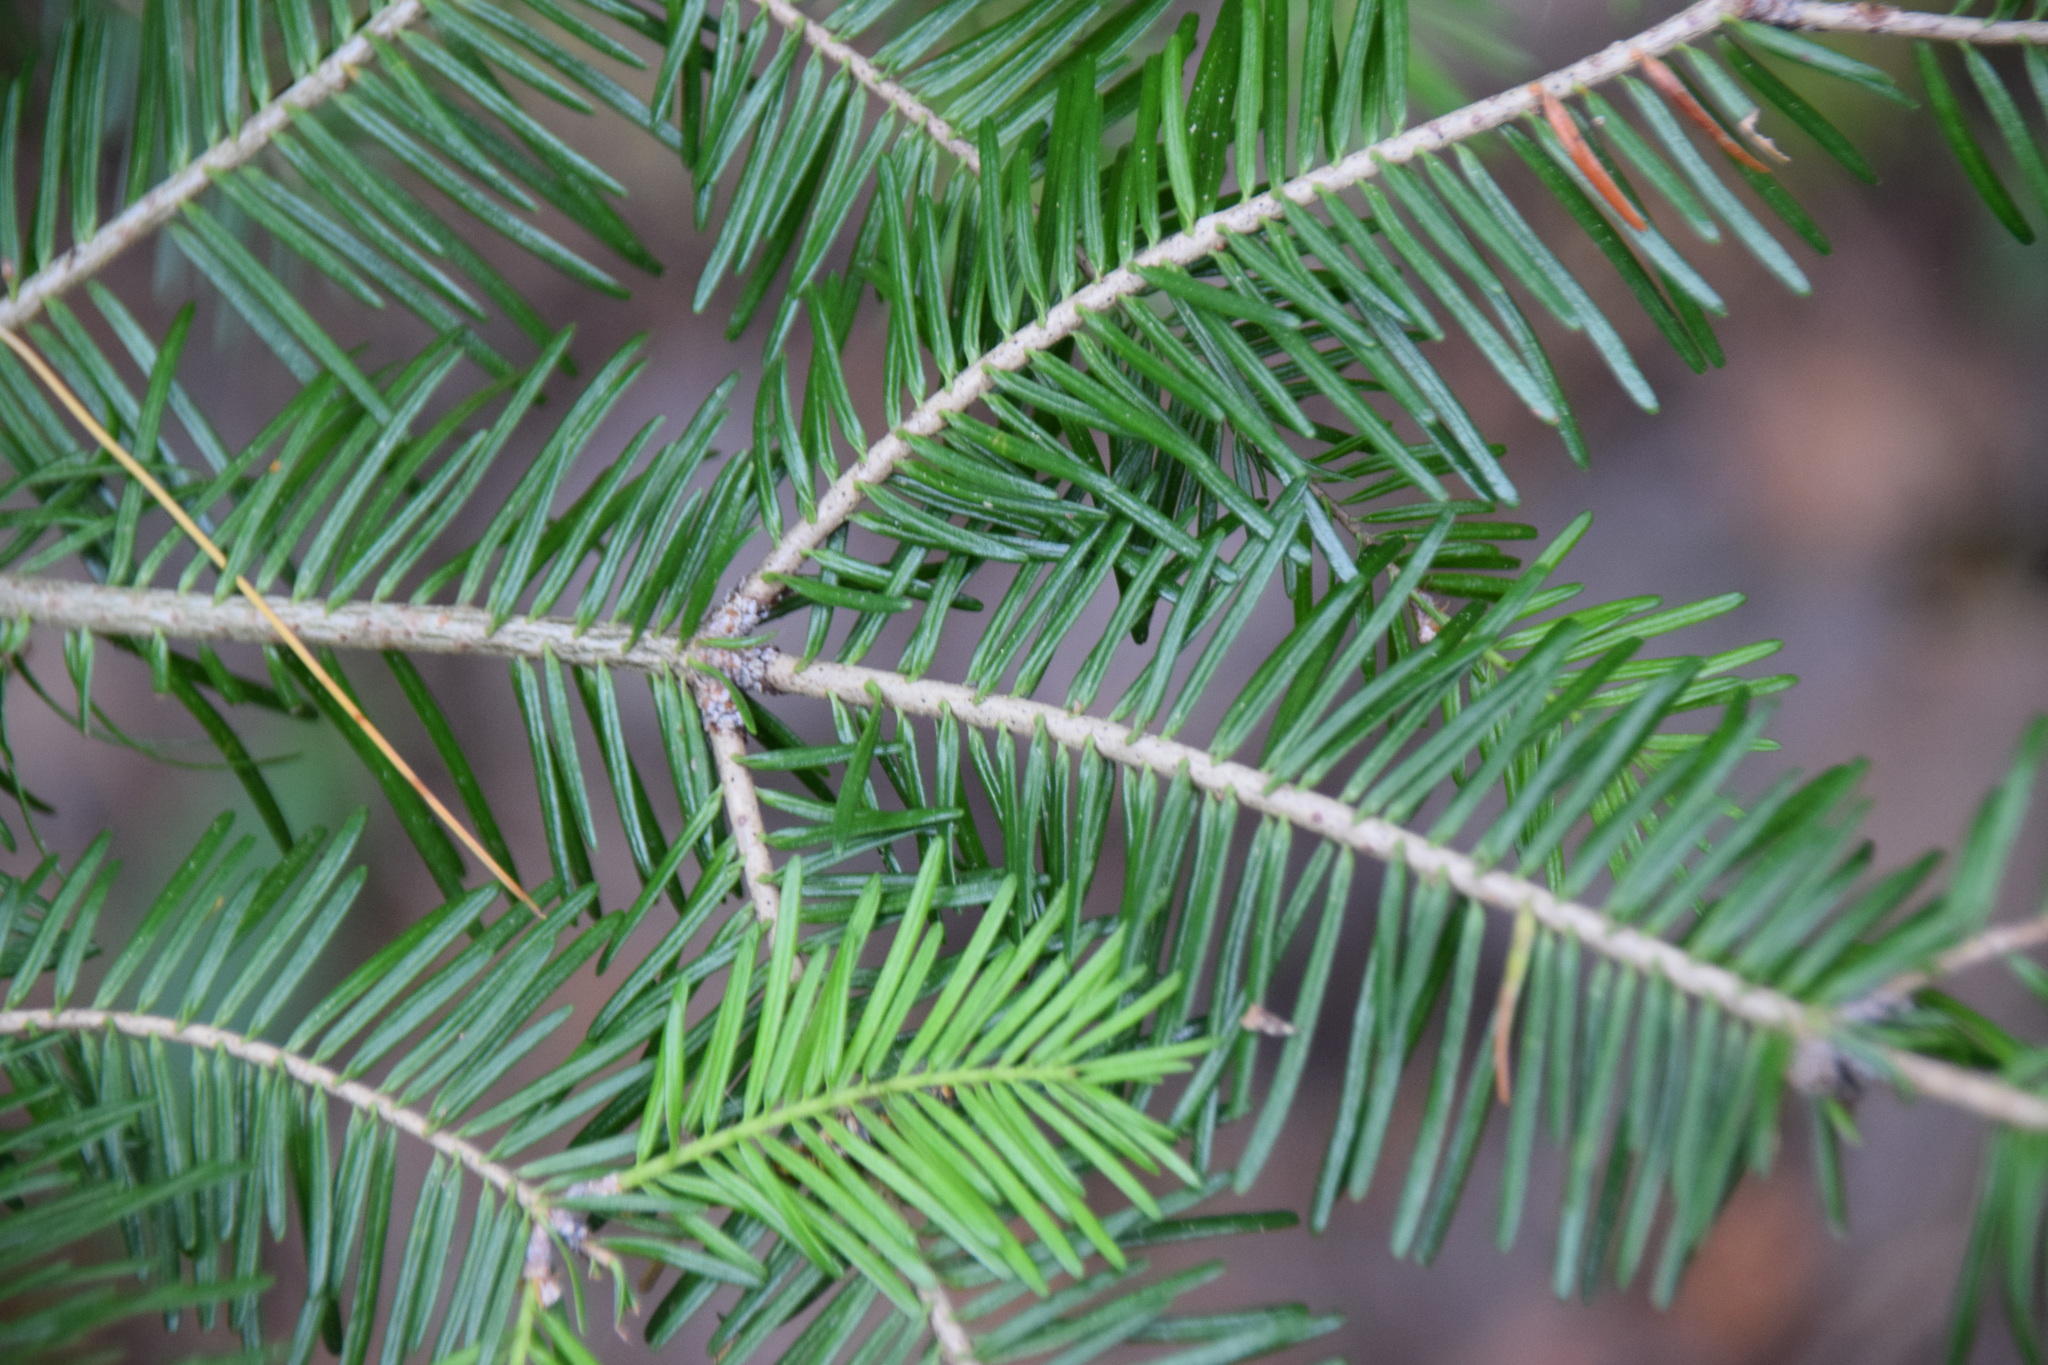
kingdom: Plantae
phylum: Tracheophyta
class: Pinopsida
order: Pinales
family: Pinaceae
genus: Abies
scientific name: Abies balsamea
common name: Balsam fir
